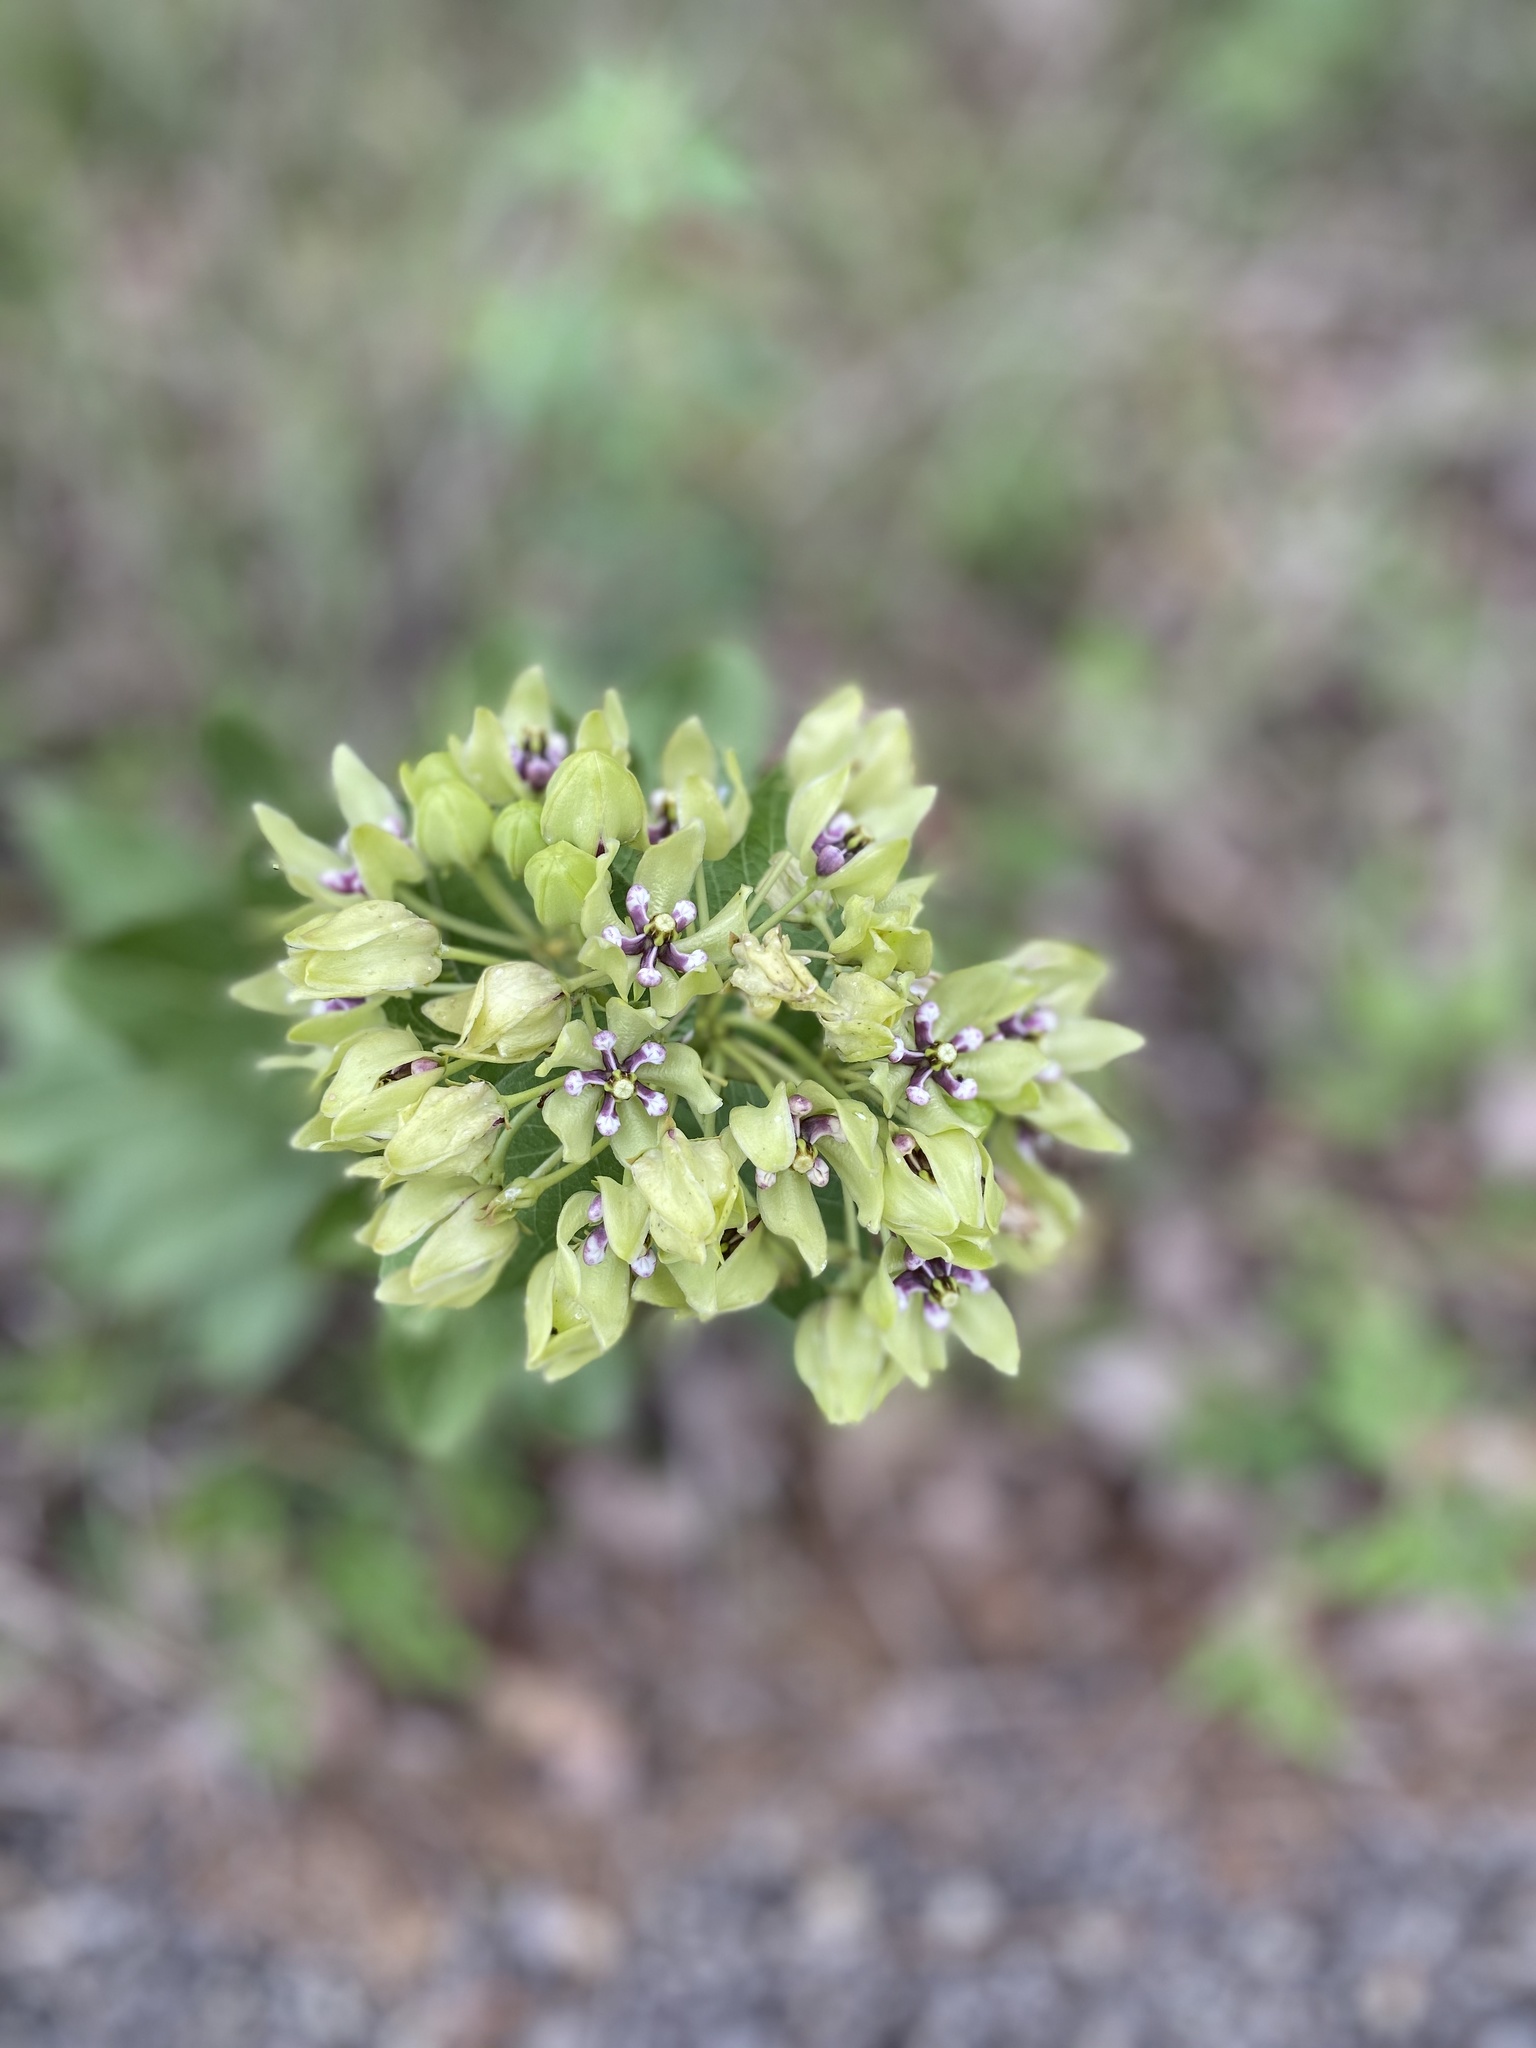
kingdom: Plantae
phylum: Tracheophyta
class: Magnoliopsida
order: Gentianales
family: Apocynaceae
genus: Asclepias
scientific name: Asclepias viridis
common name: Antelope-horns
